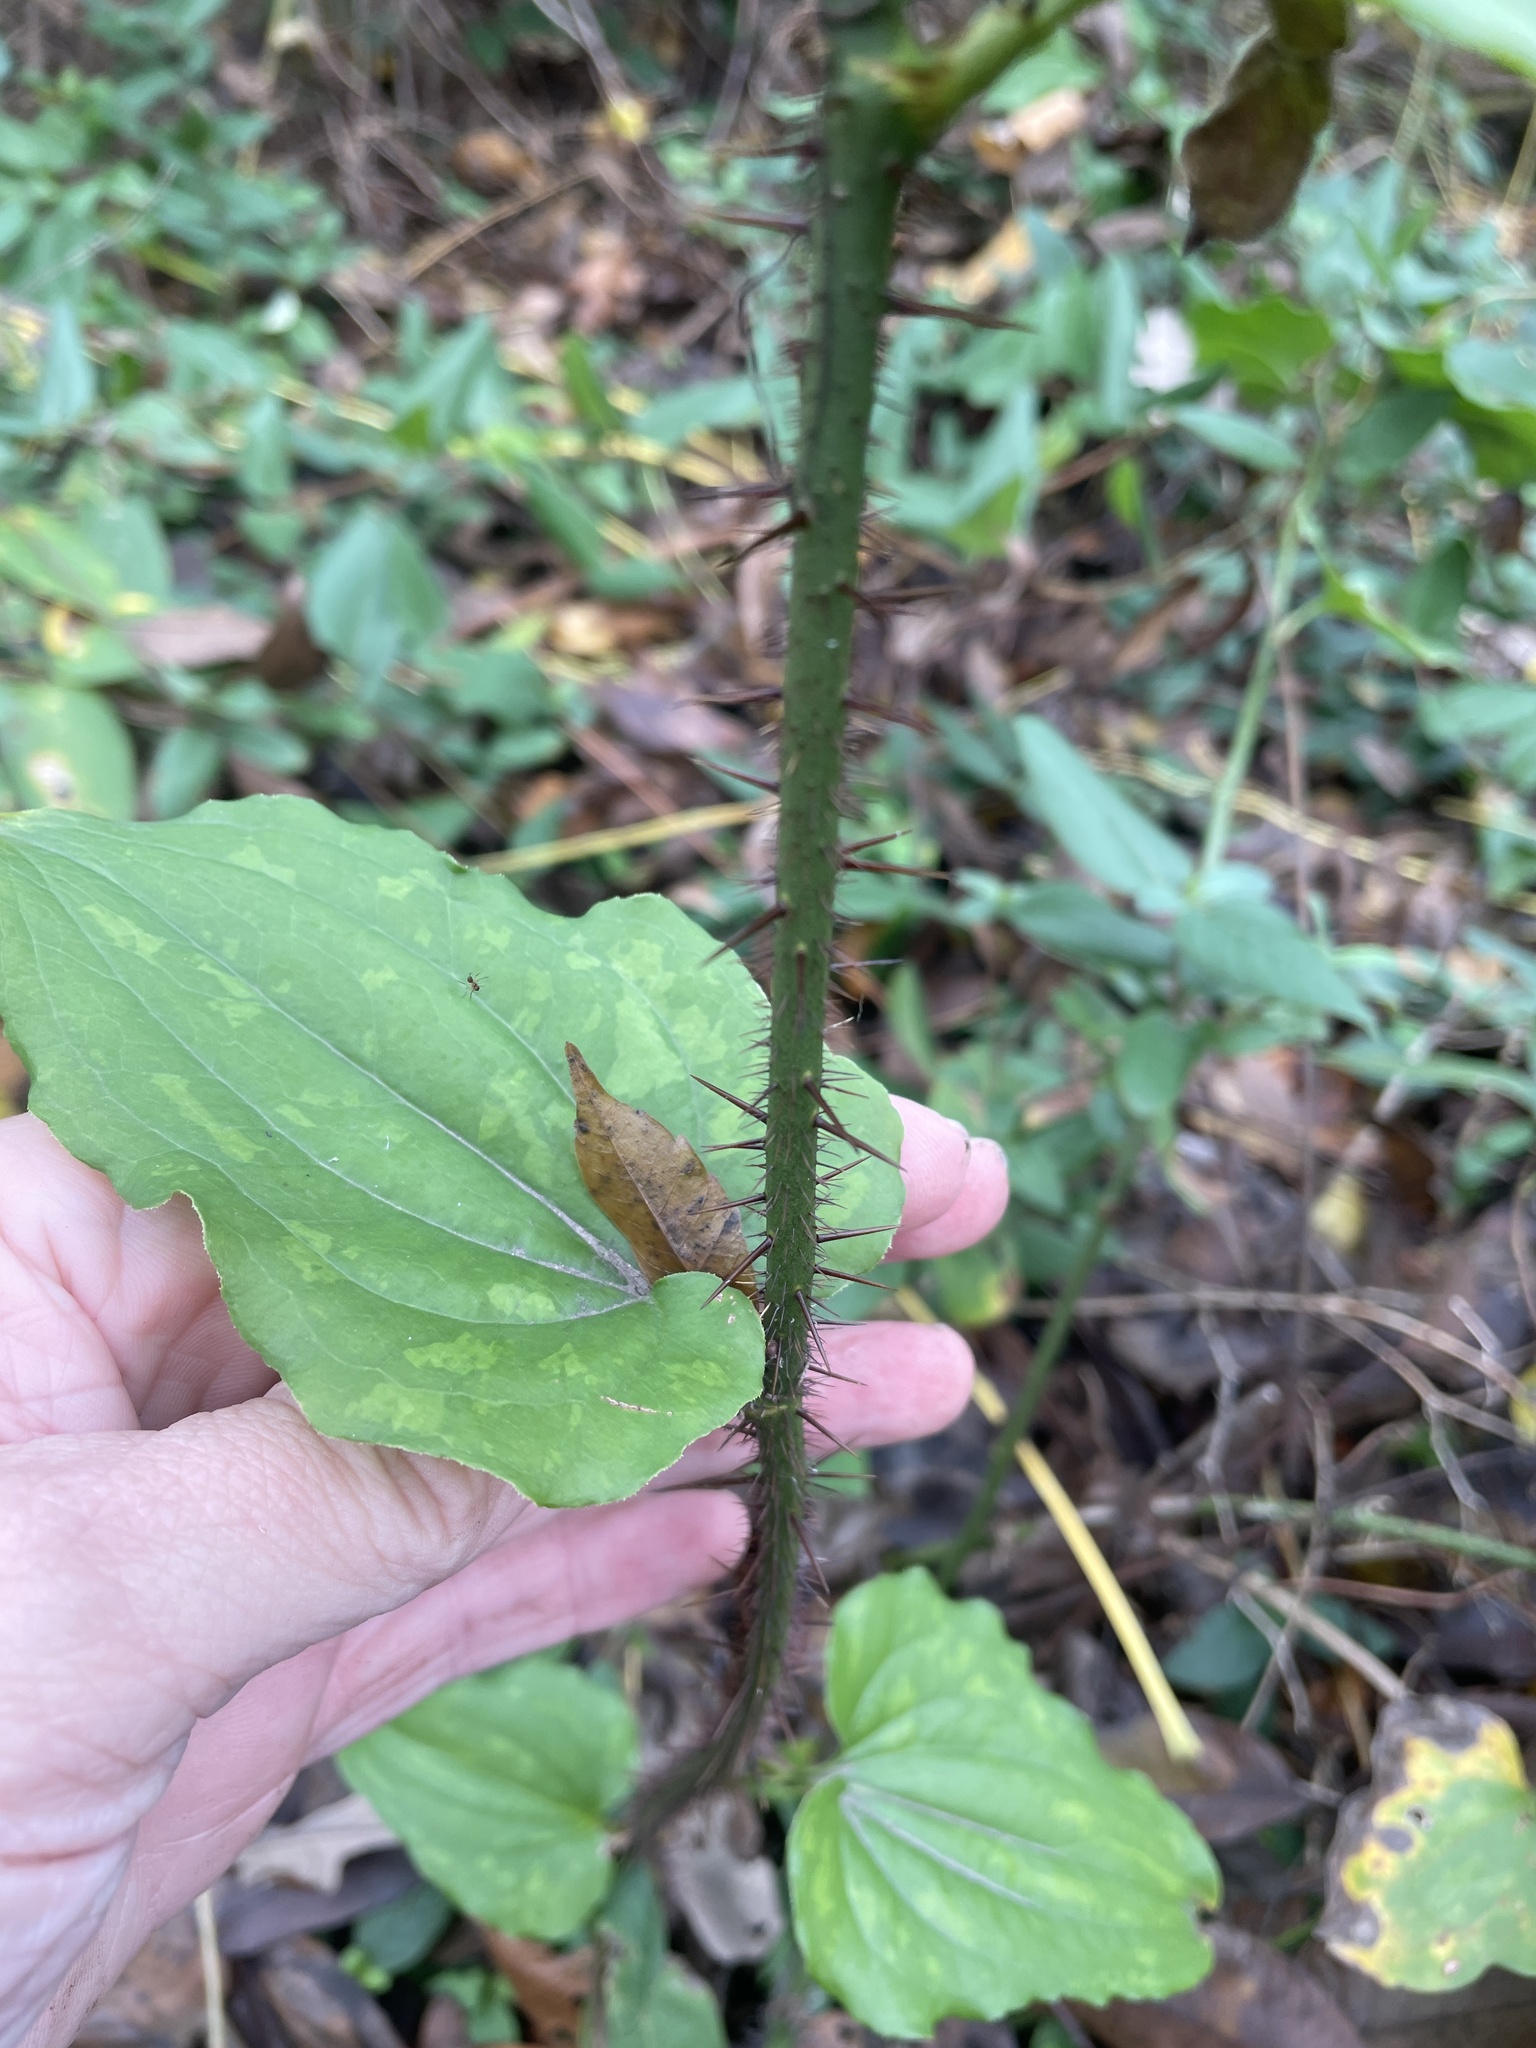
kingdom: Plantae
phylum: Tracheophyta
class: Liliopsida
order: Liliales
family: Smilacaceae
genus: Smilax
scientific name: Smilax tamnoides
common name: Hellfetter
